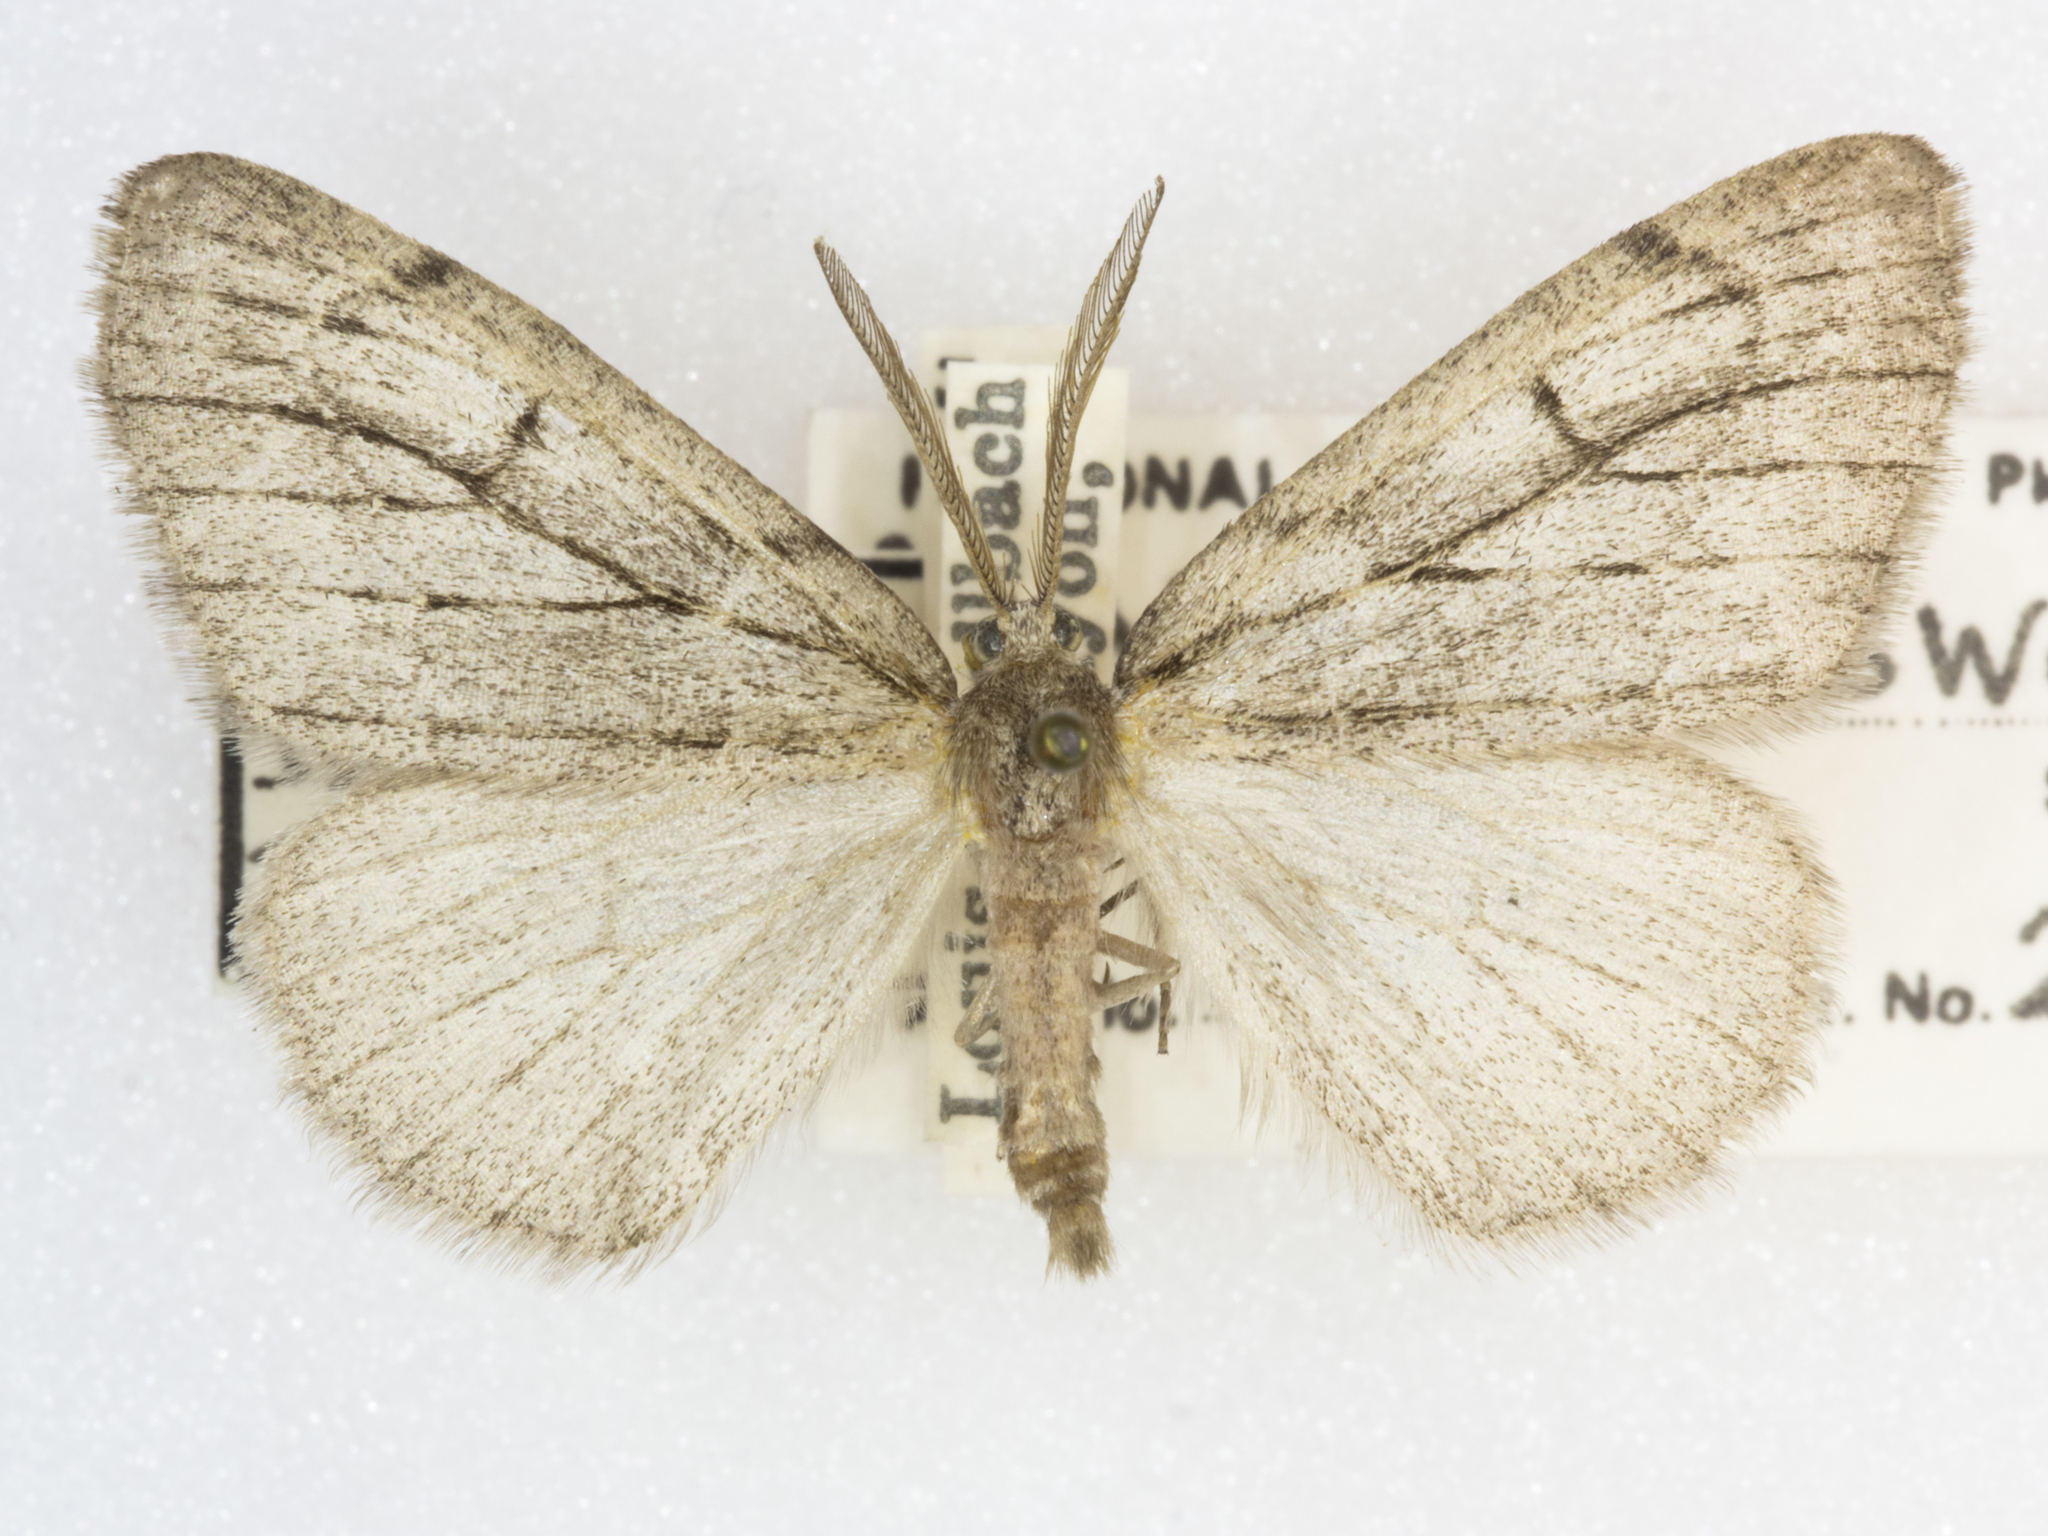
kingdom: Animalia
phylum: Arthropoda
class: Insecta
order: Lepidoptera
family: Geometridae
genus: Nepytia
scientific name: Nepytia swetti
